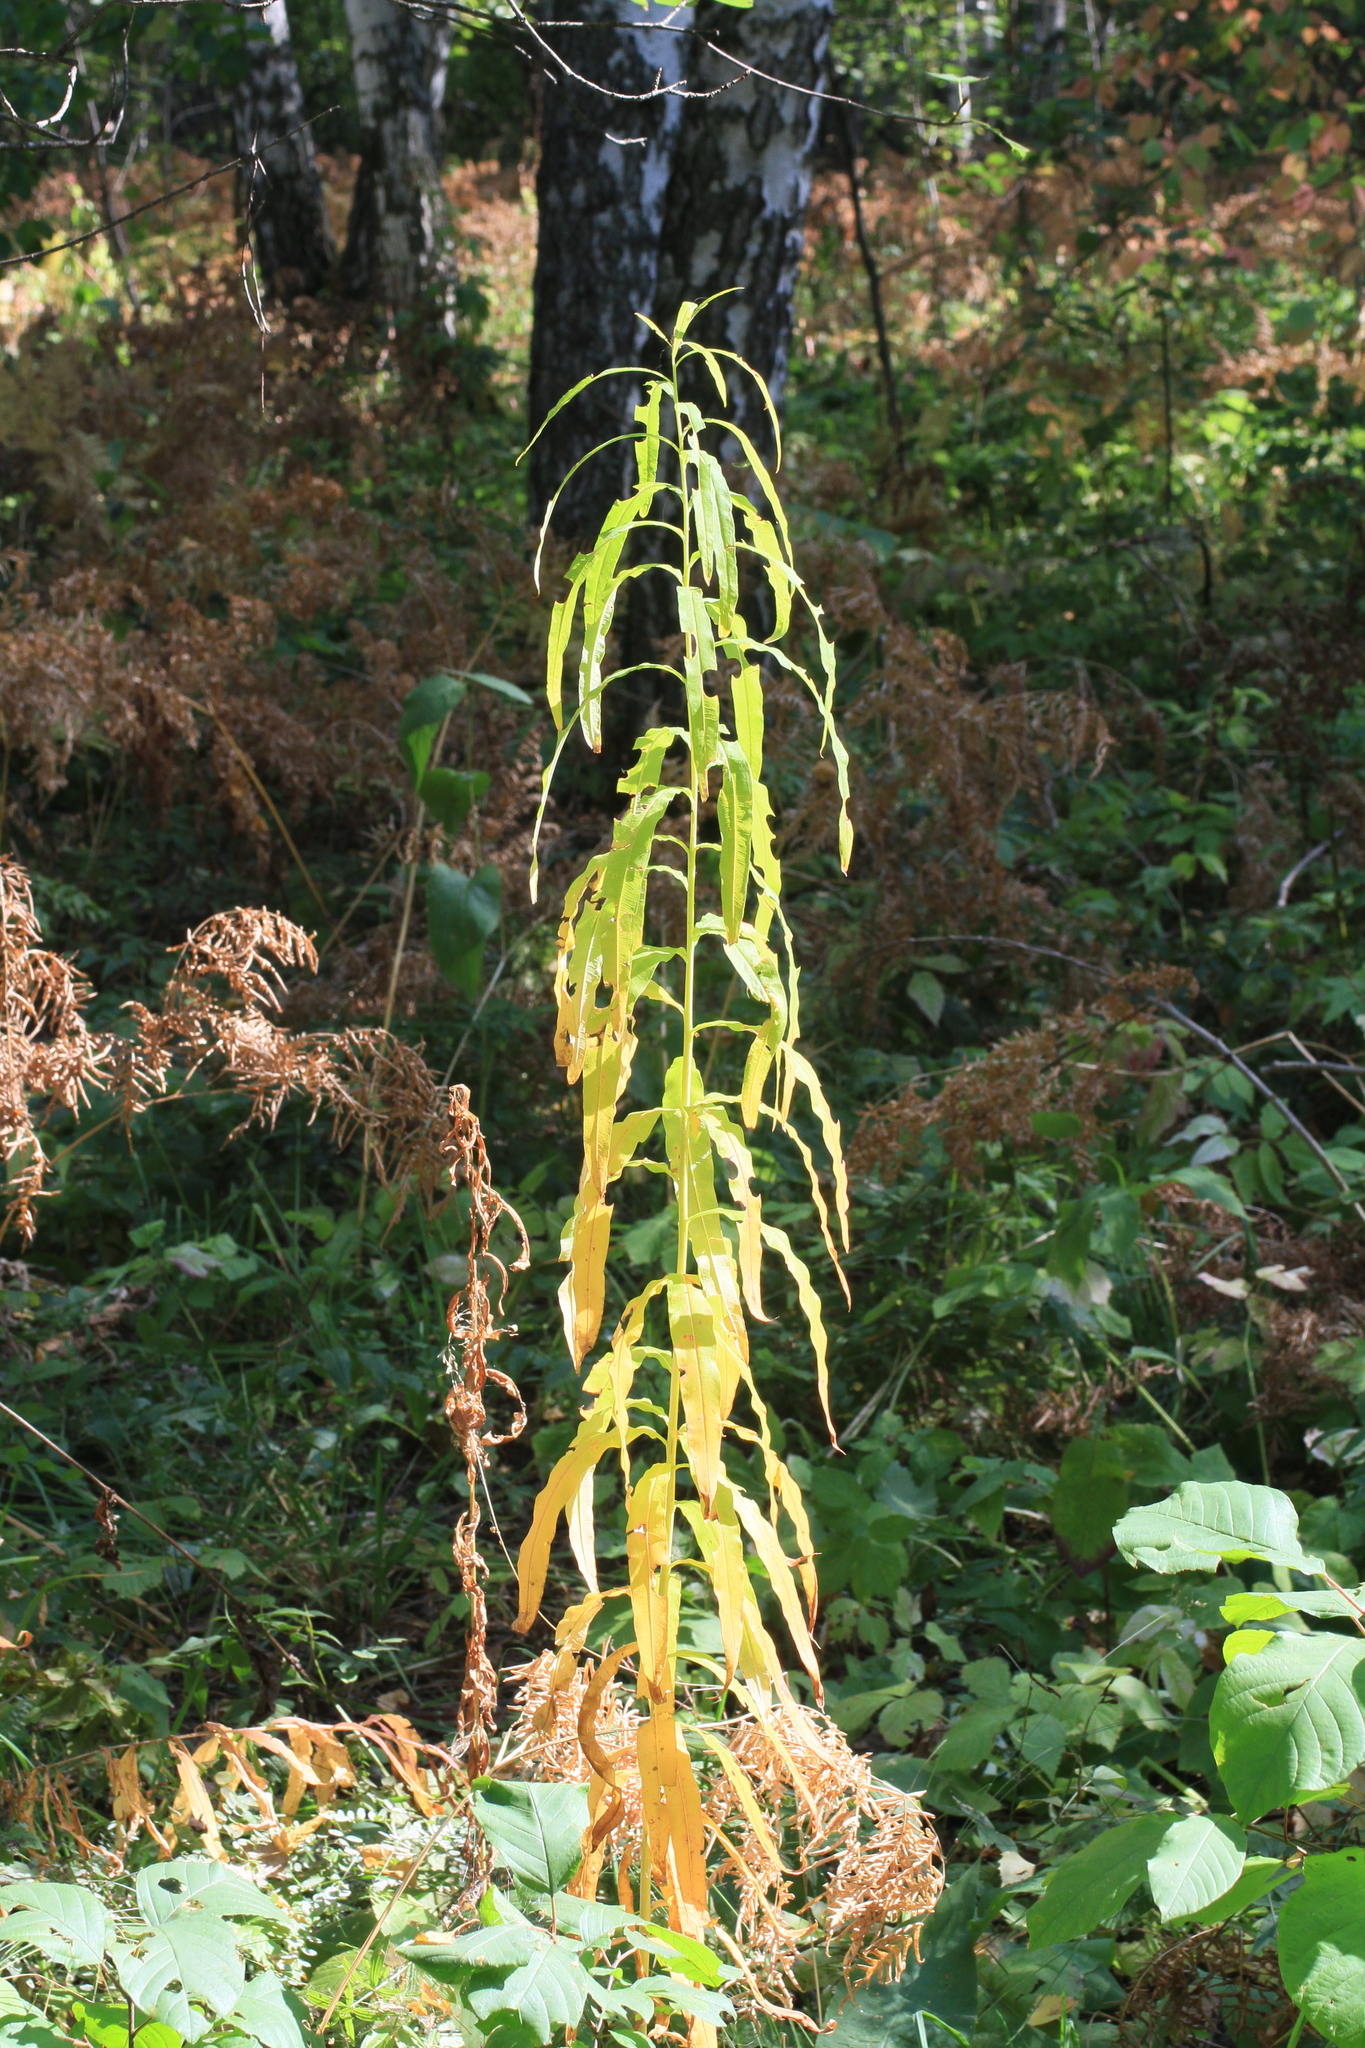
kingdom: Plantae
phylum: Tracheophyta
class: Magnoliopsida
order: Myrtales
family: Onagraceae
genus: Chamaenerion
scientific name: Chamaenerion angustifolium
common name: Fireweed
